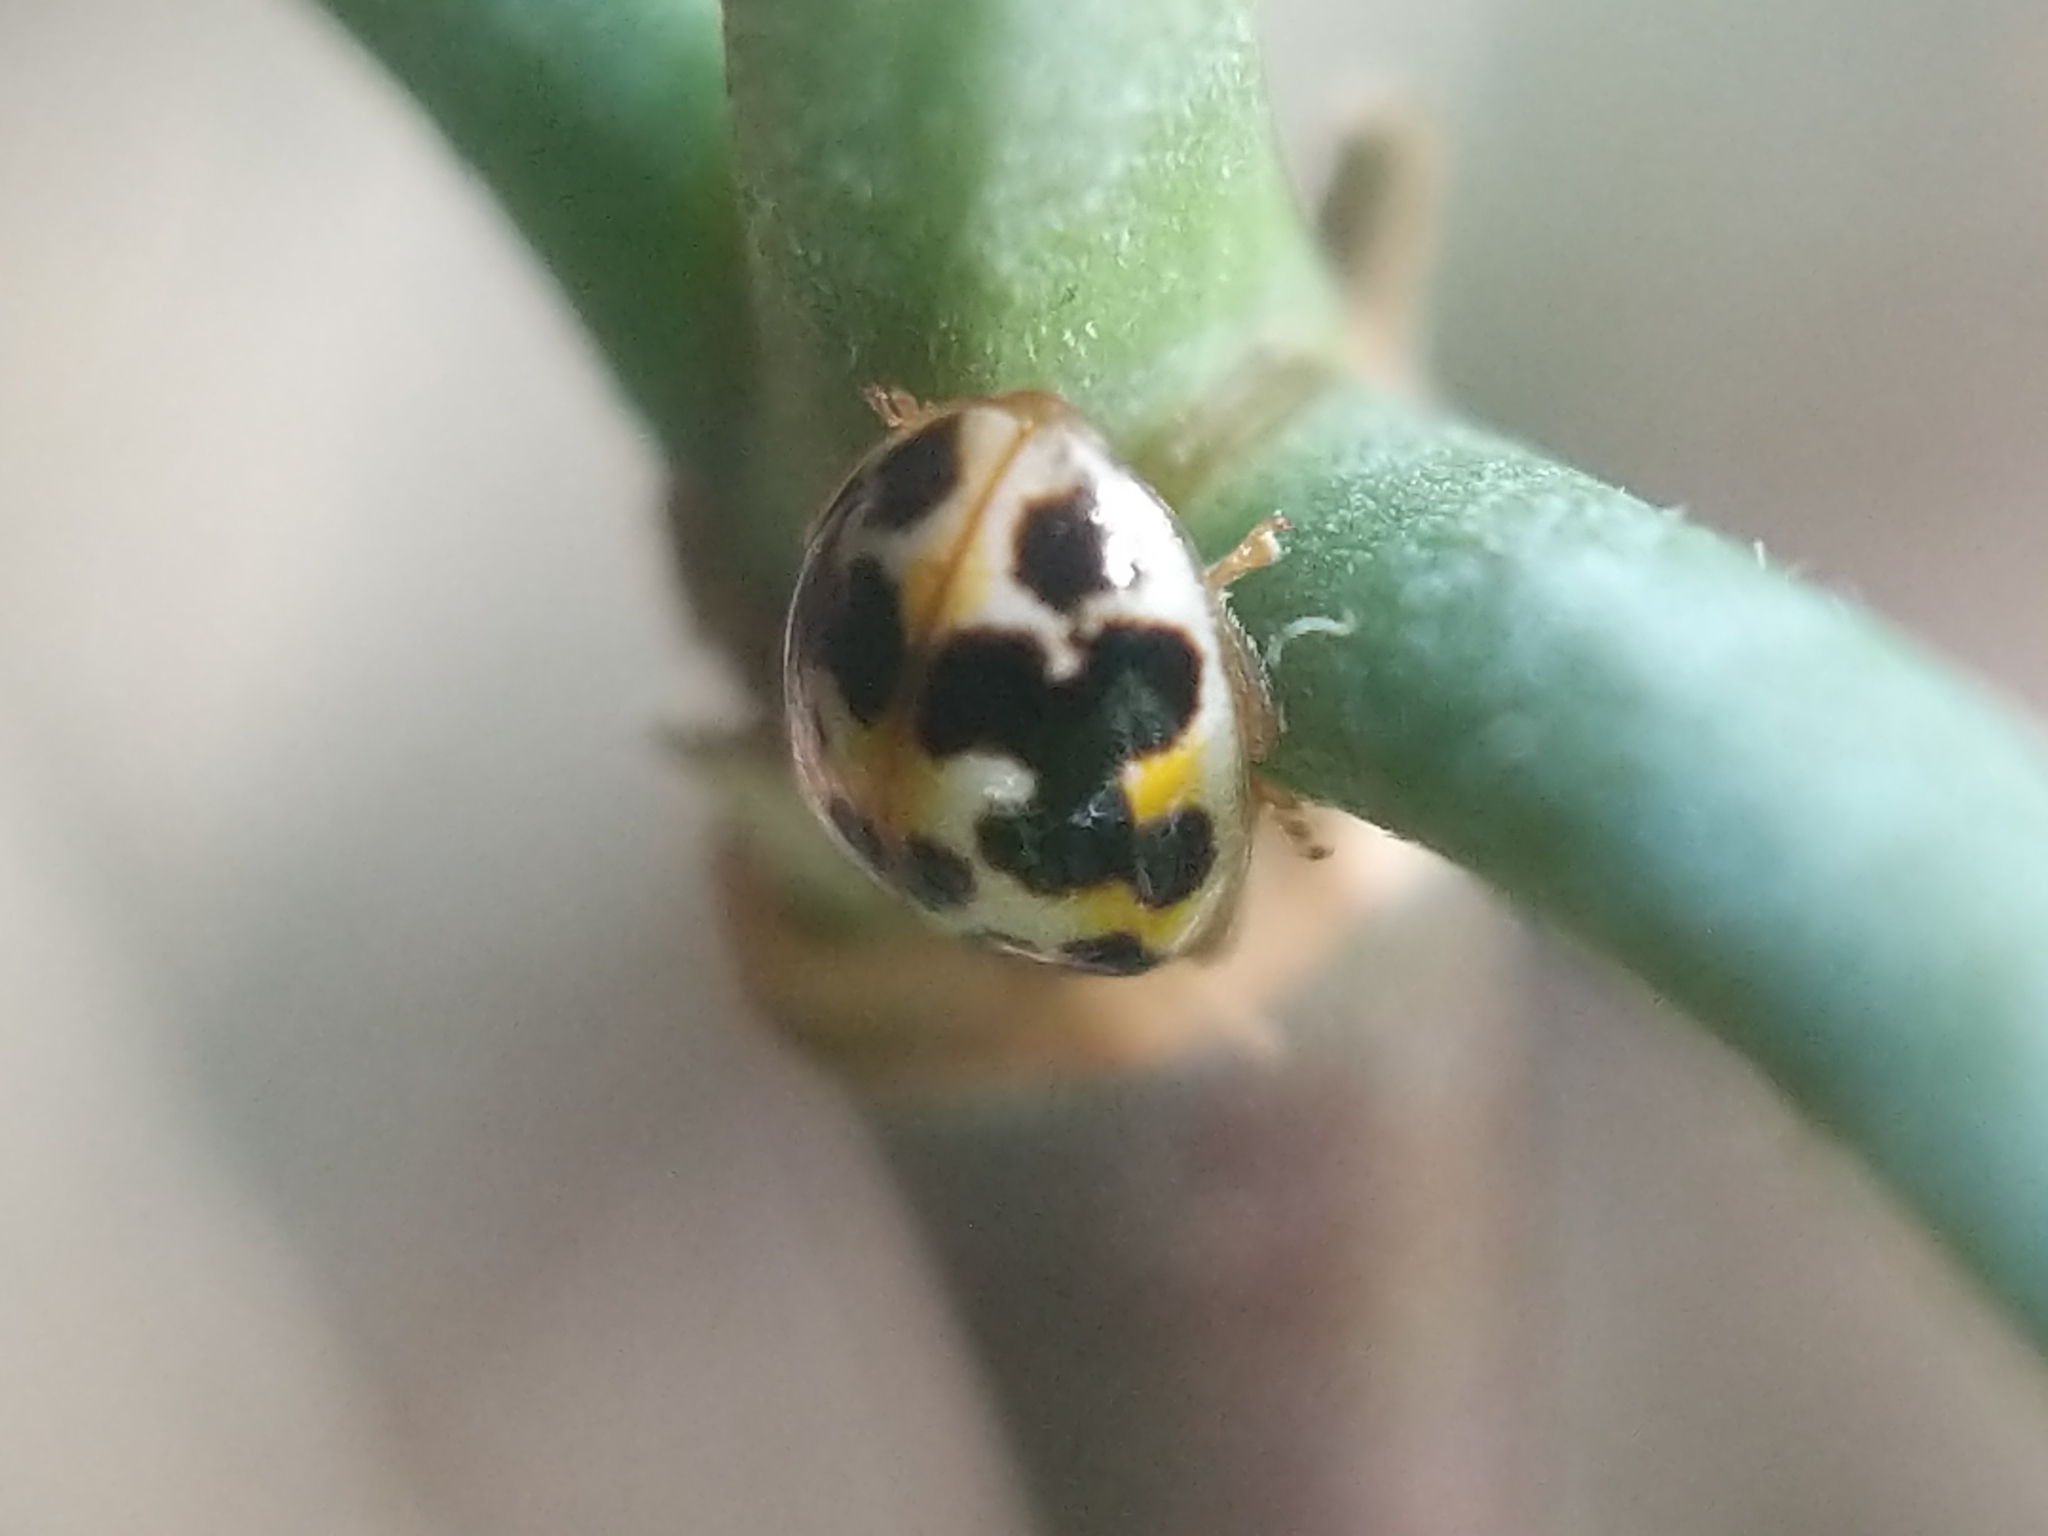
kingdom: Animalia
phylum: Arthropoda
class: Insecta
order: Coleoptera
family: Coccinellidae
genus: Psyllobora
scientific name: Psyllobora vigintimaculata
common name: Ladybird beetle
